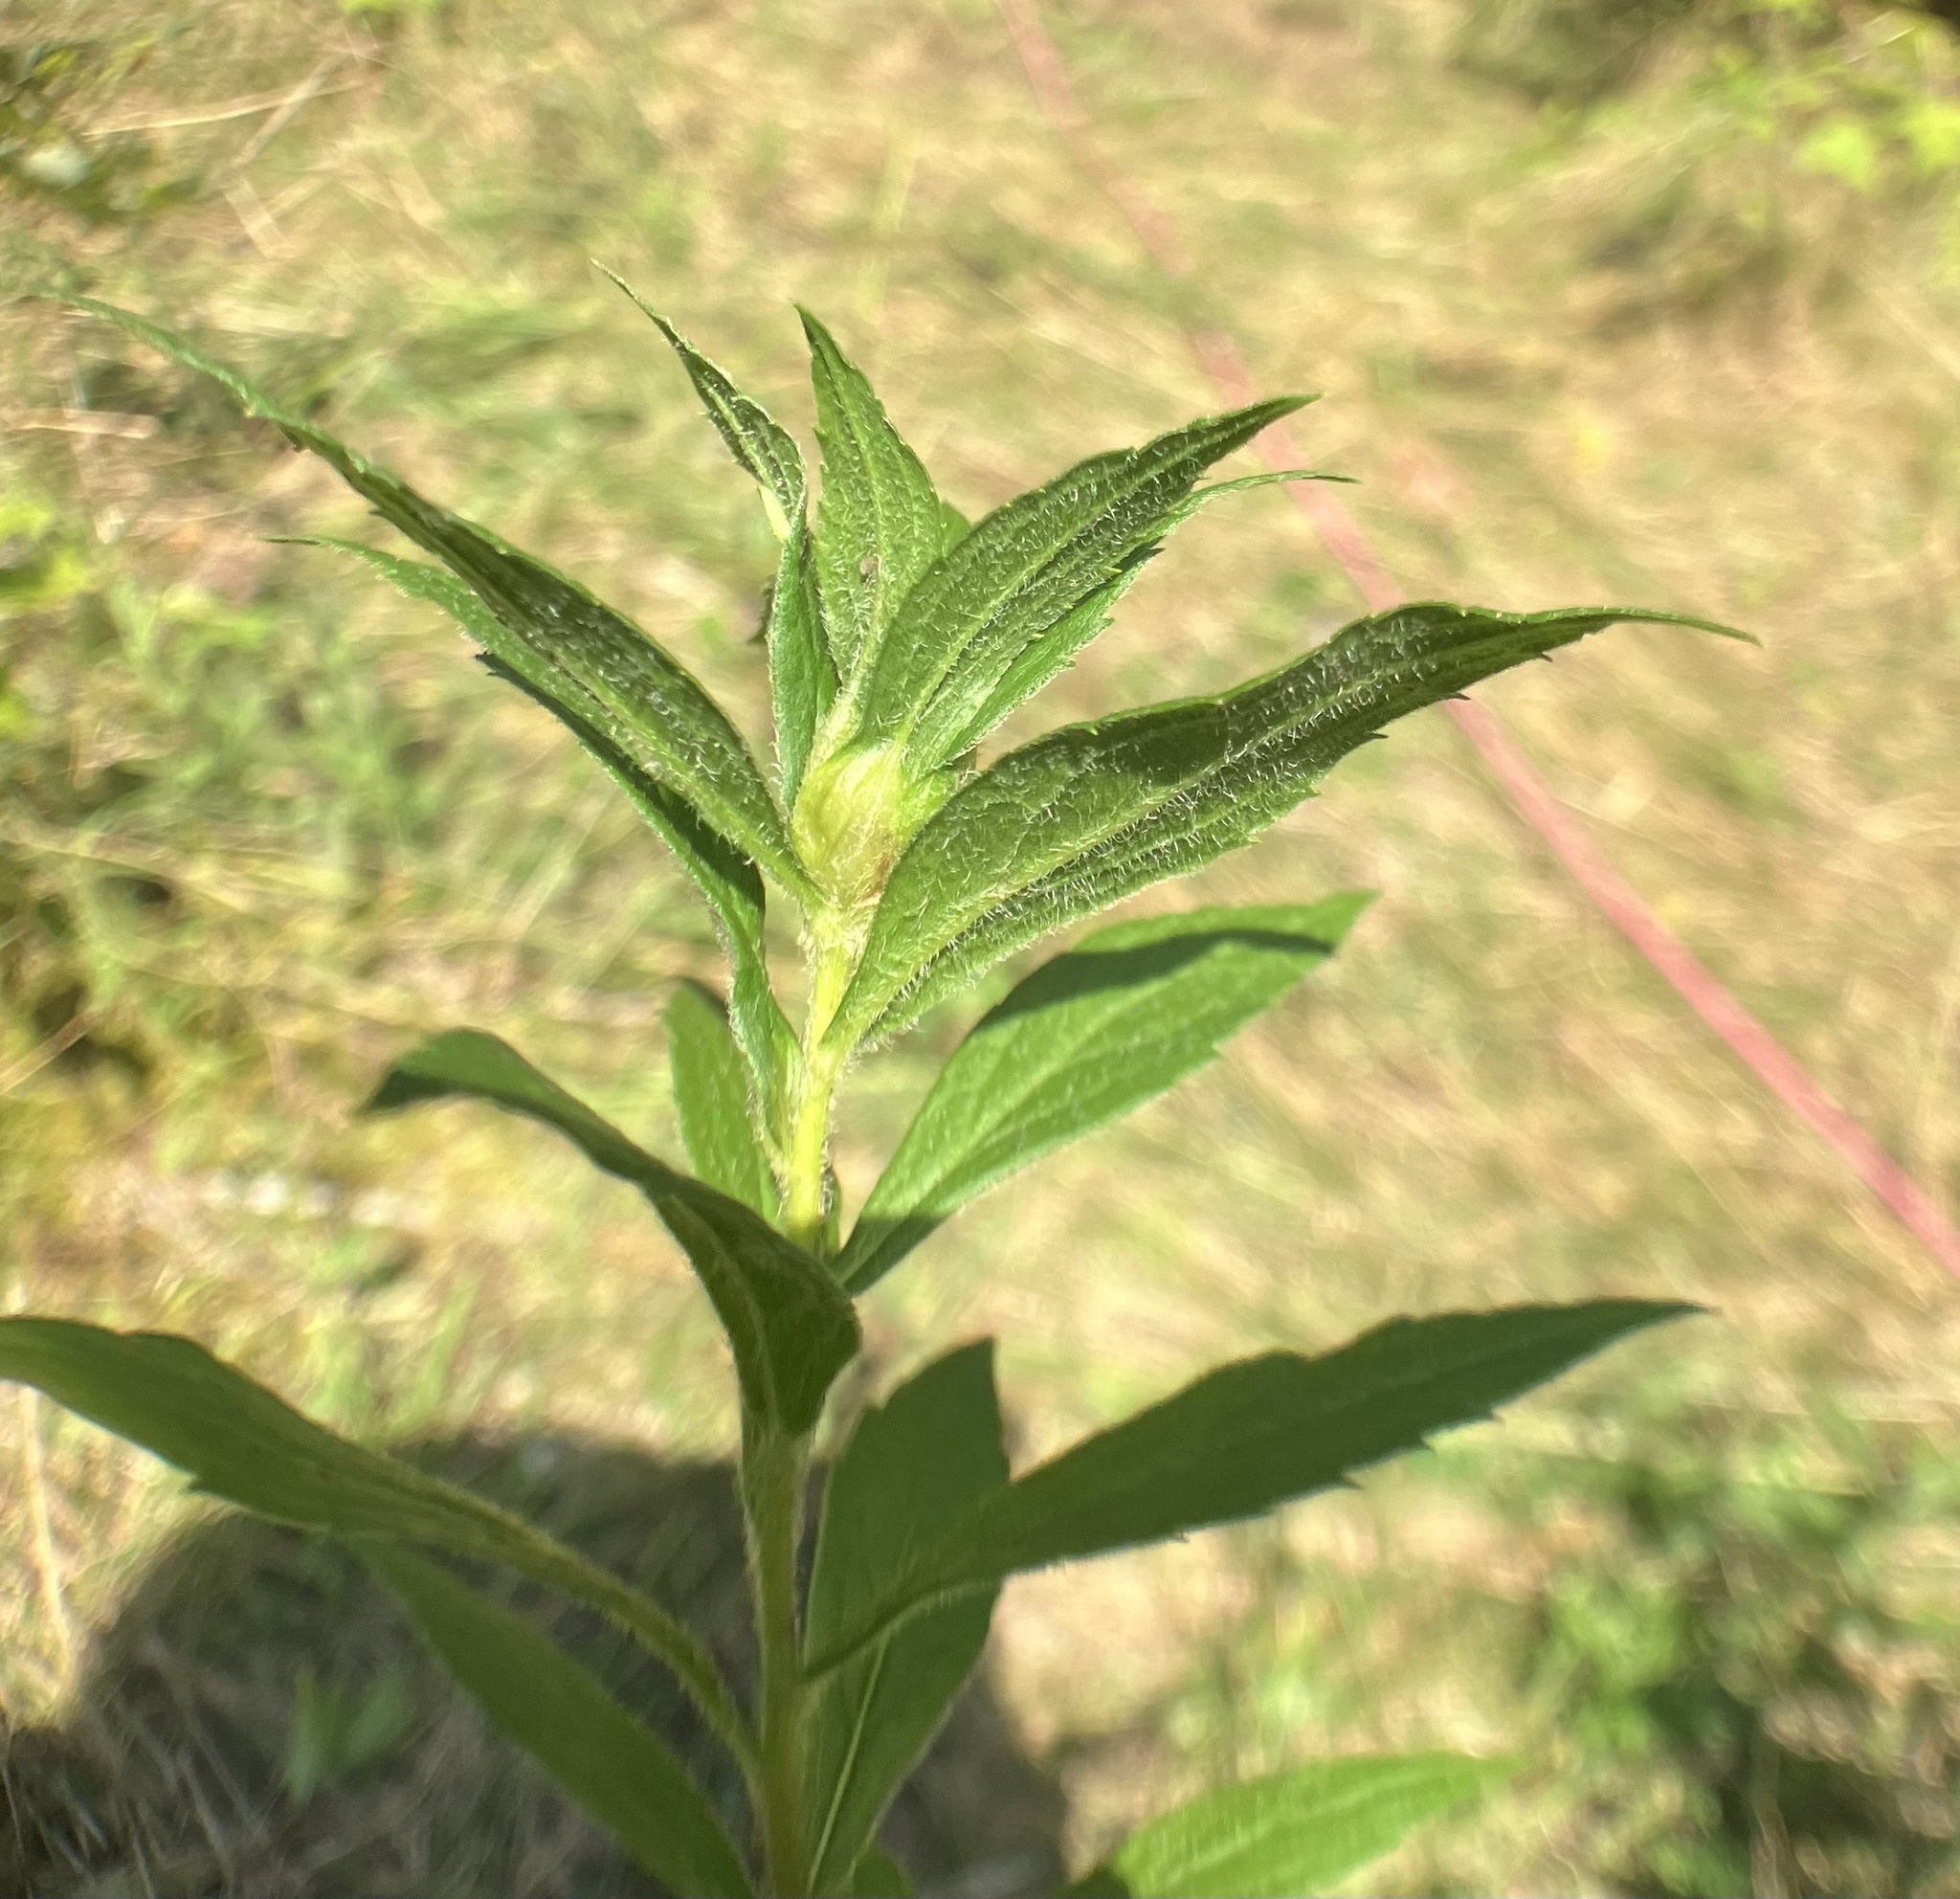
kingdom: Animalia
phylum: Arthropoda
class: Insecta
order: Diptera
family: Cecidomyiidae
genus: Dasineura
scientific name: Dasineura folliculi
